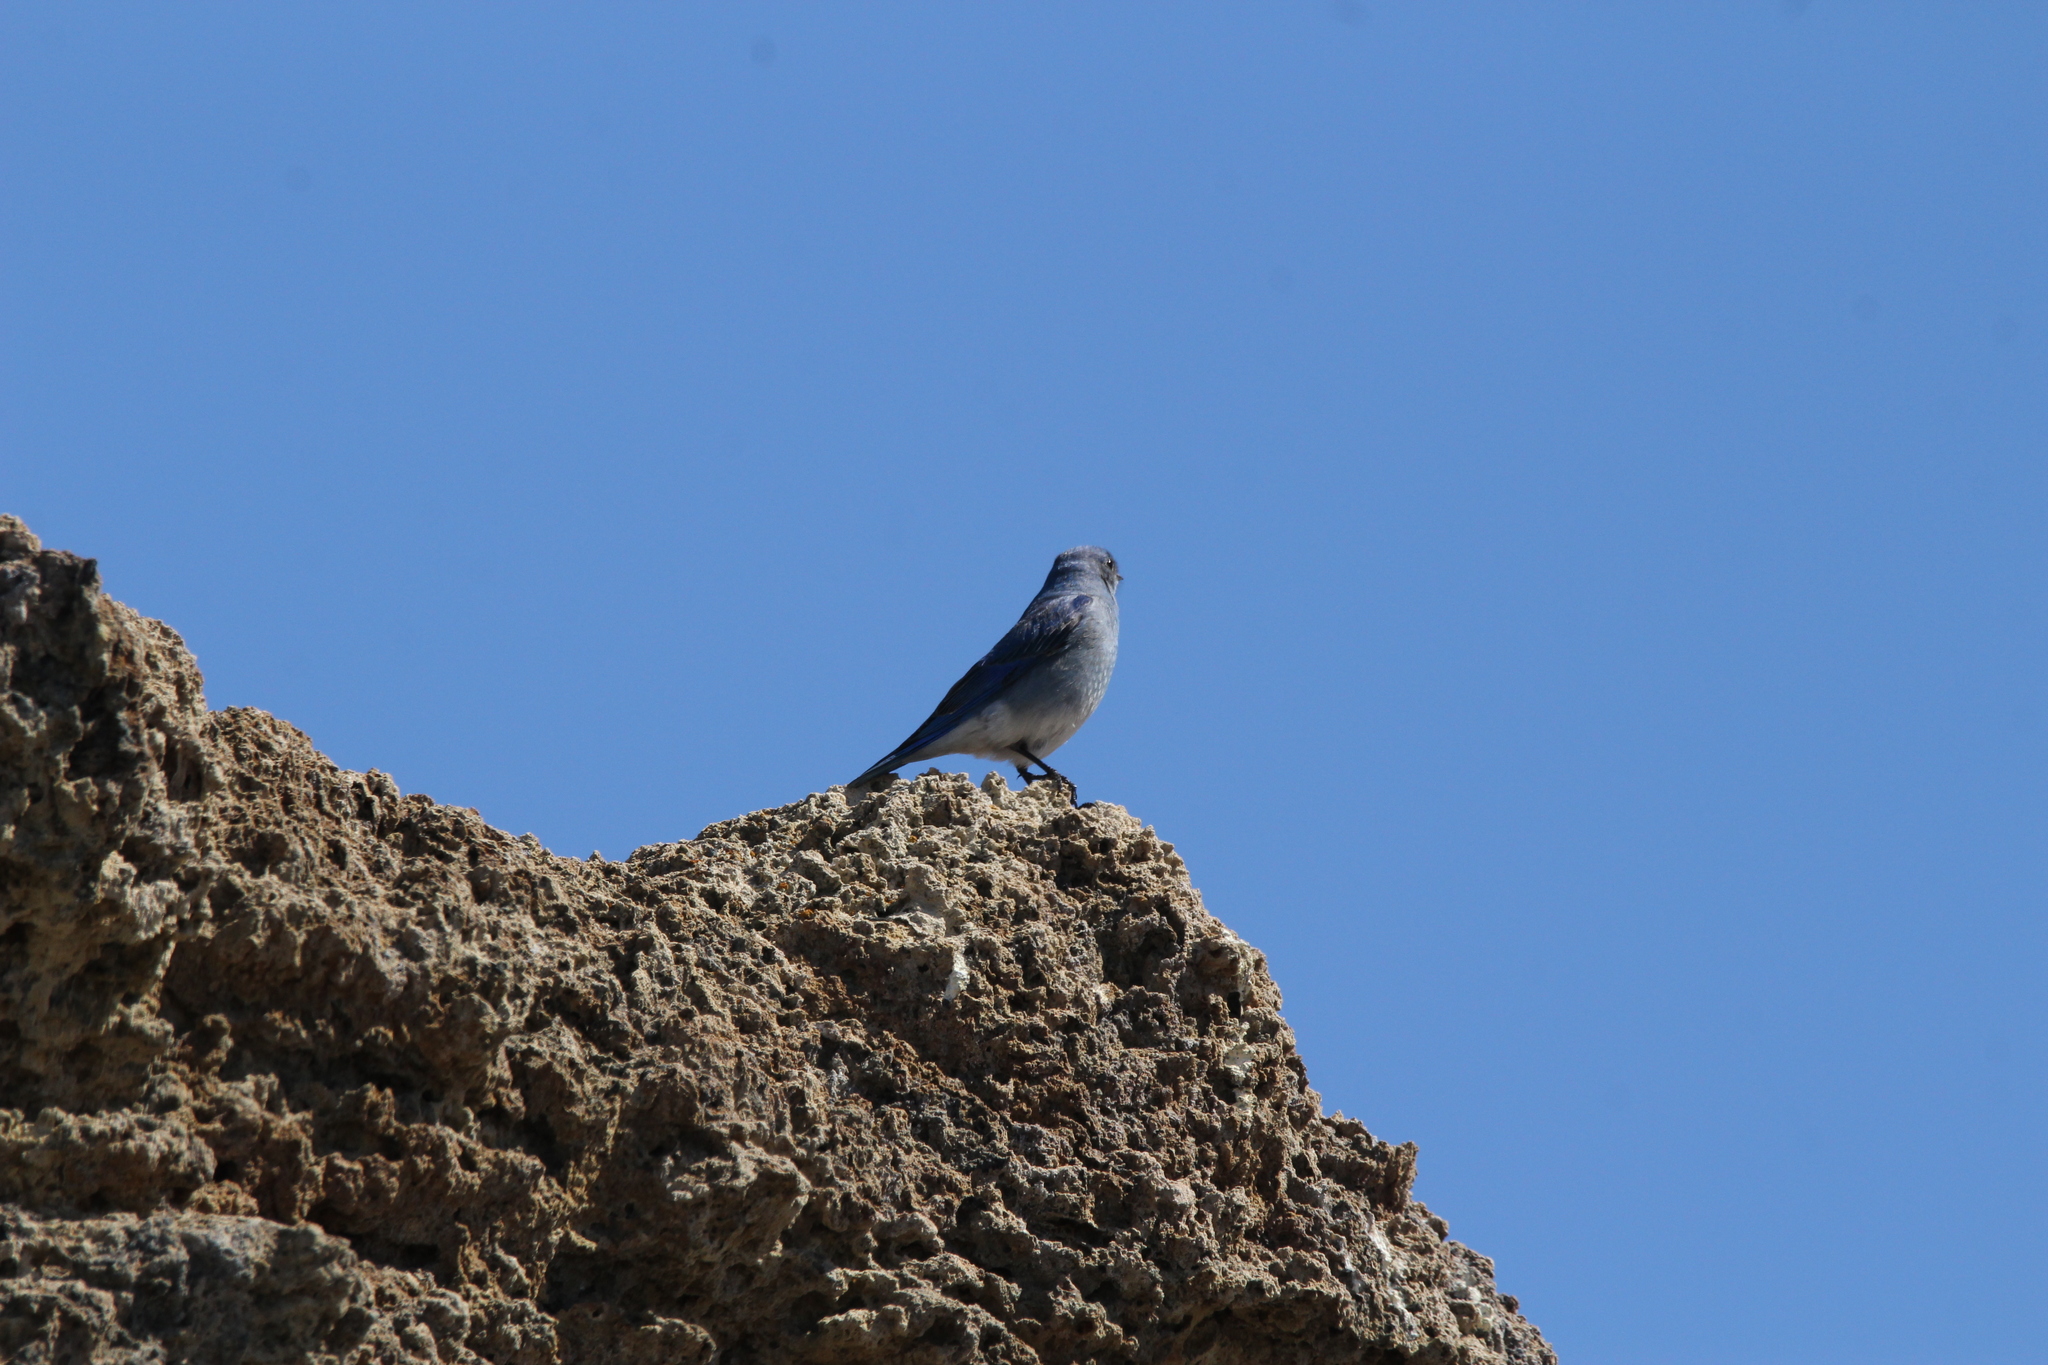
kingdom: Animalia
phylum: Chordata
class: Aves
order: Passeriformes
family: Turdidae
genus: Sialia
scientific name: Sialia currucoides
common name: Mountain bluebird
